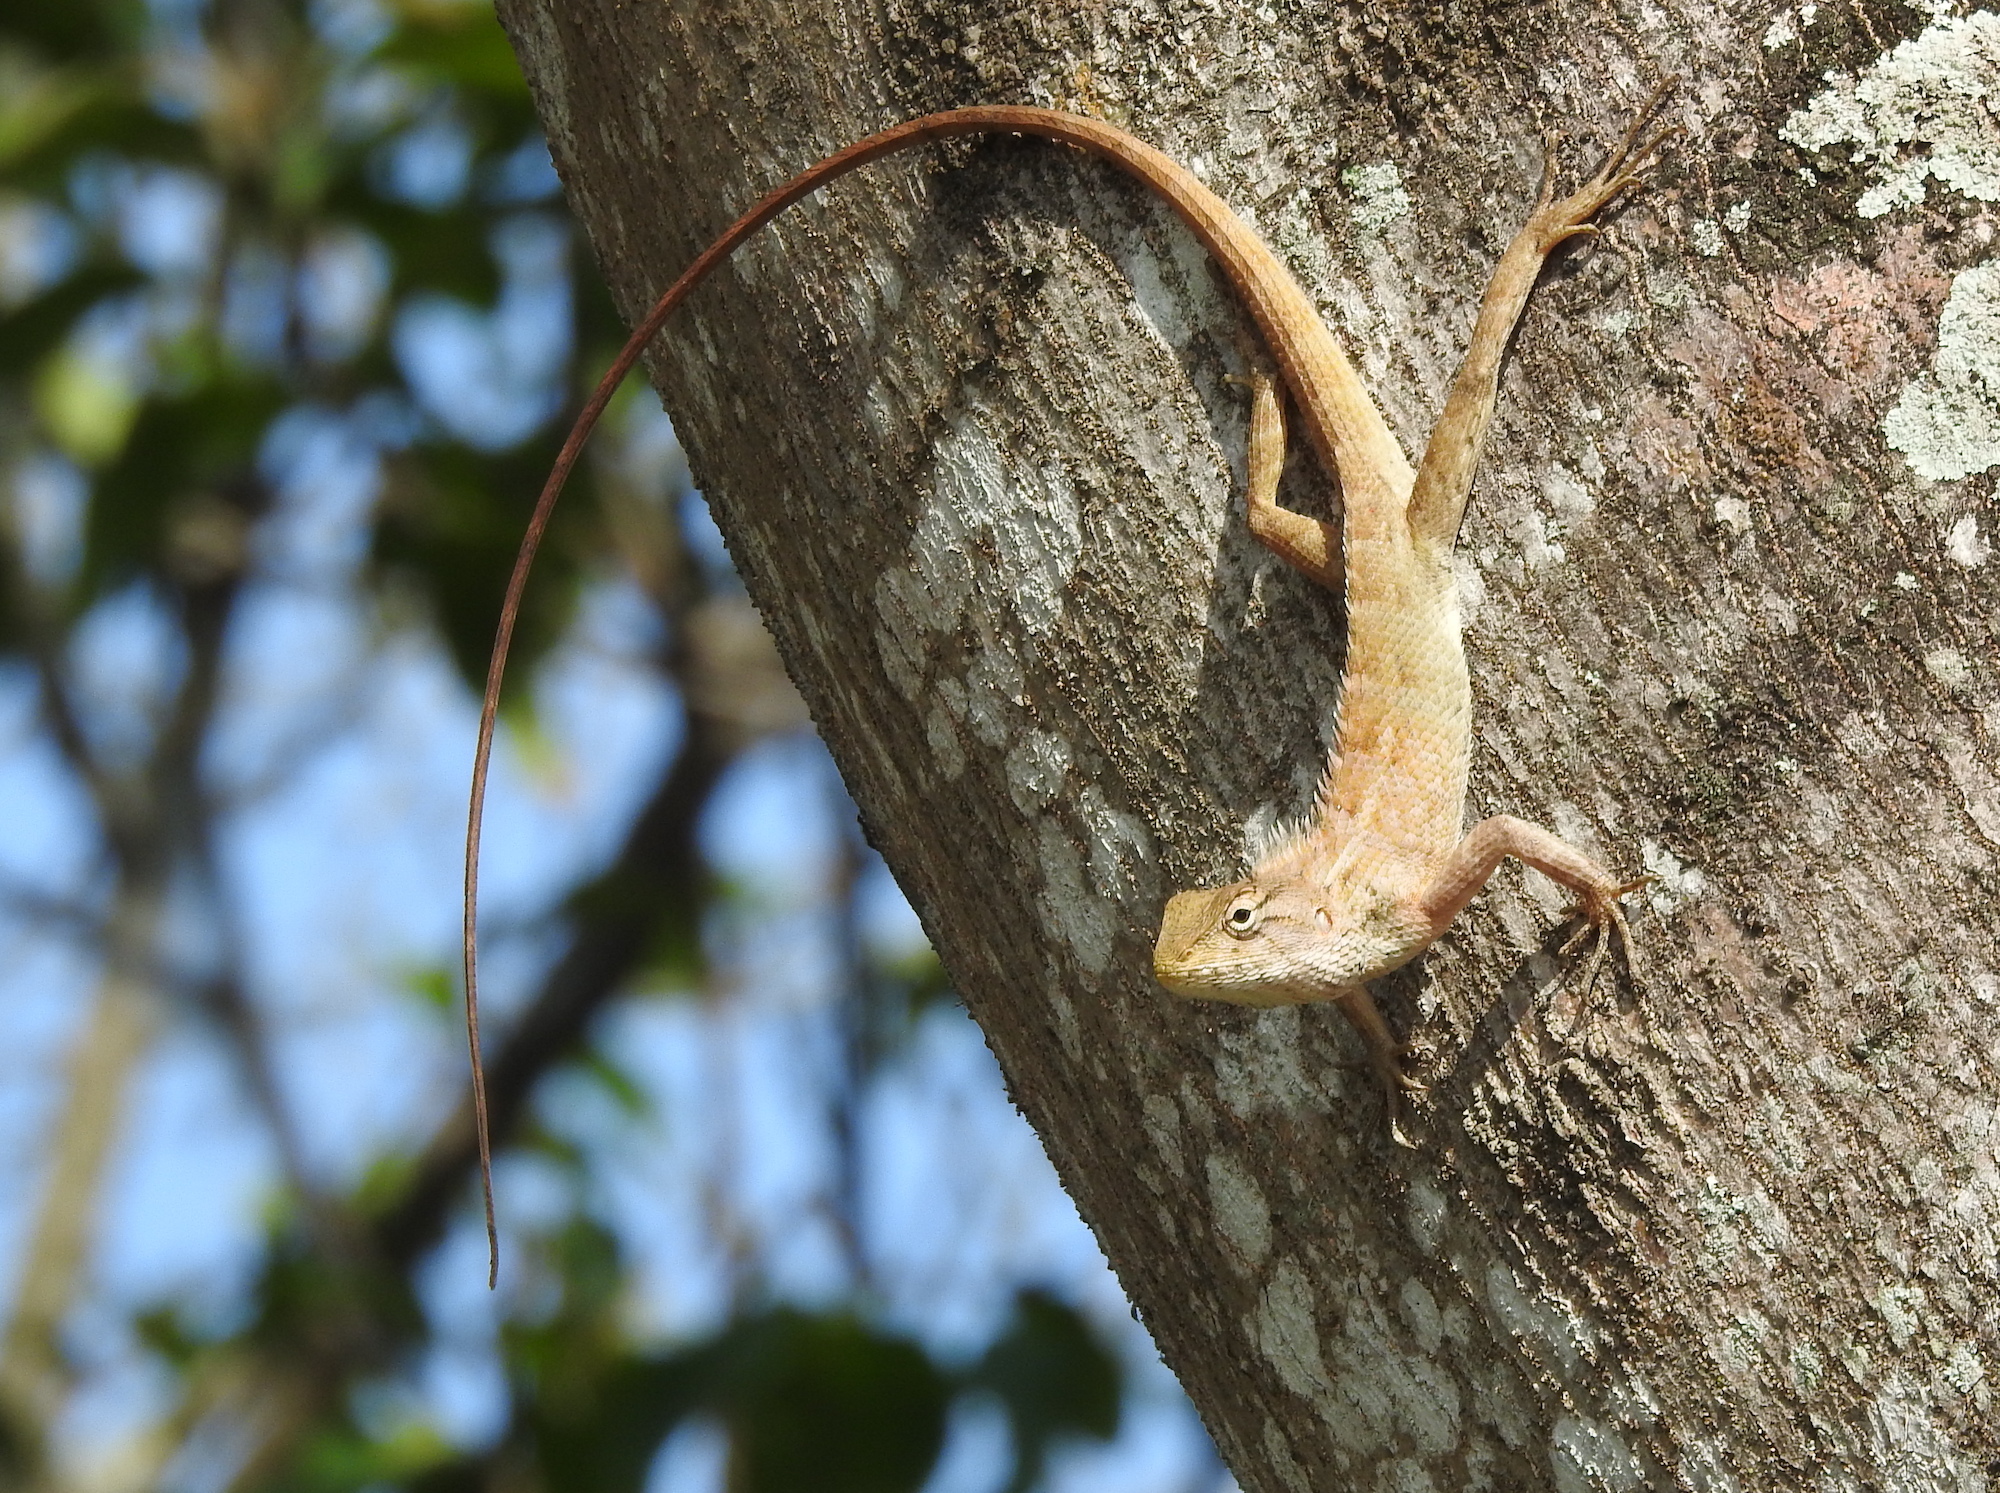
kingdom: Animalia
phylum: Chordata
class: Squamata
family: Agamidae
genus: Calotes
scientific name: Calotes versicolor
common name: Oriental garden lizard
